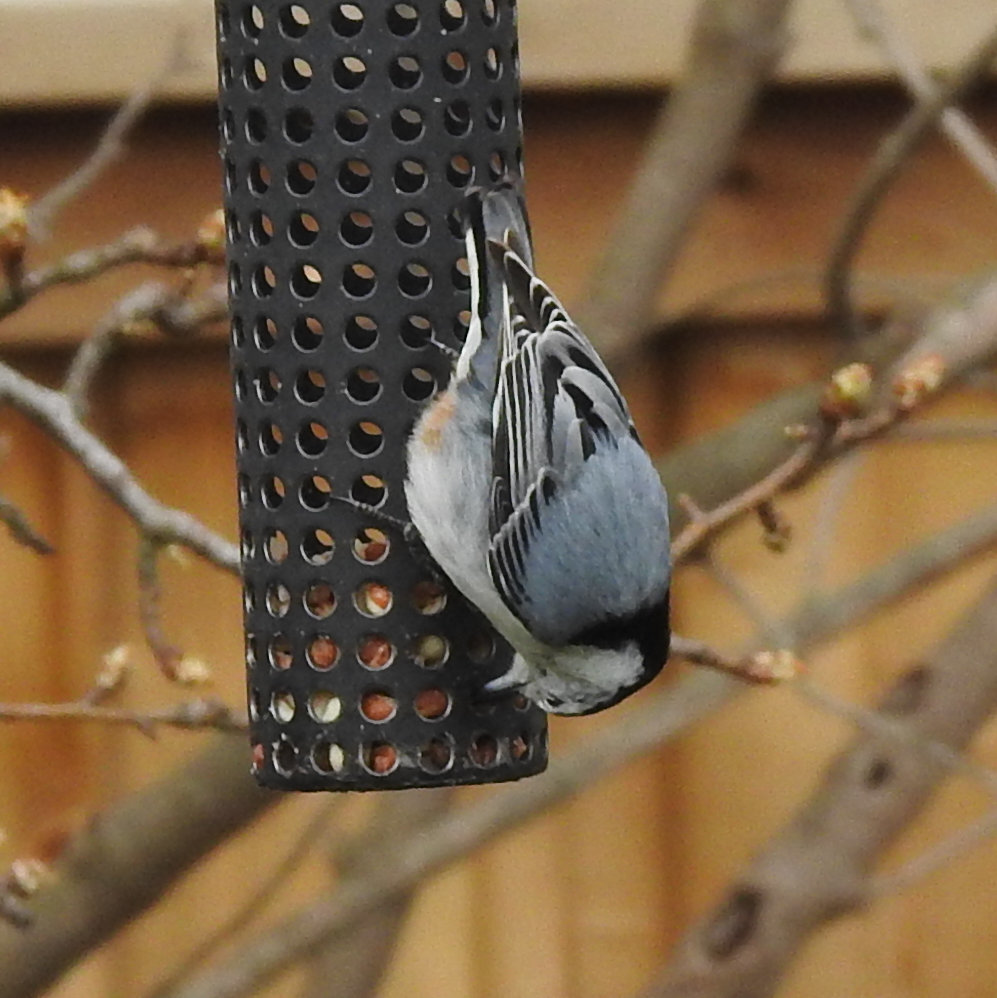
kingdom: Animalia
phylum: Chordata
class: Aves
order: Passeriformes
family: Sittidae
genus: Sitta
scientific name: Sitta carolinensis
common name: White-breasted nuthatch
